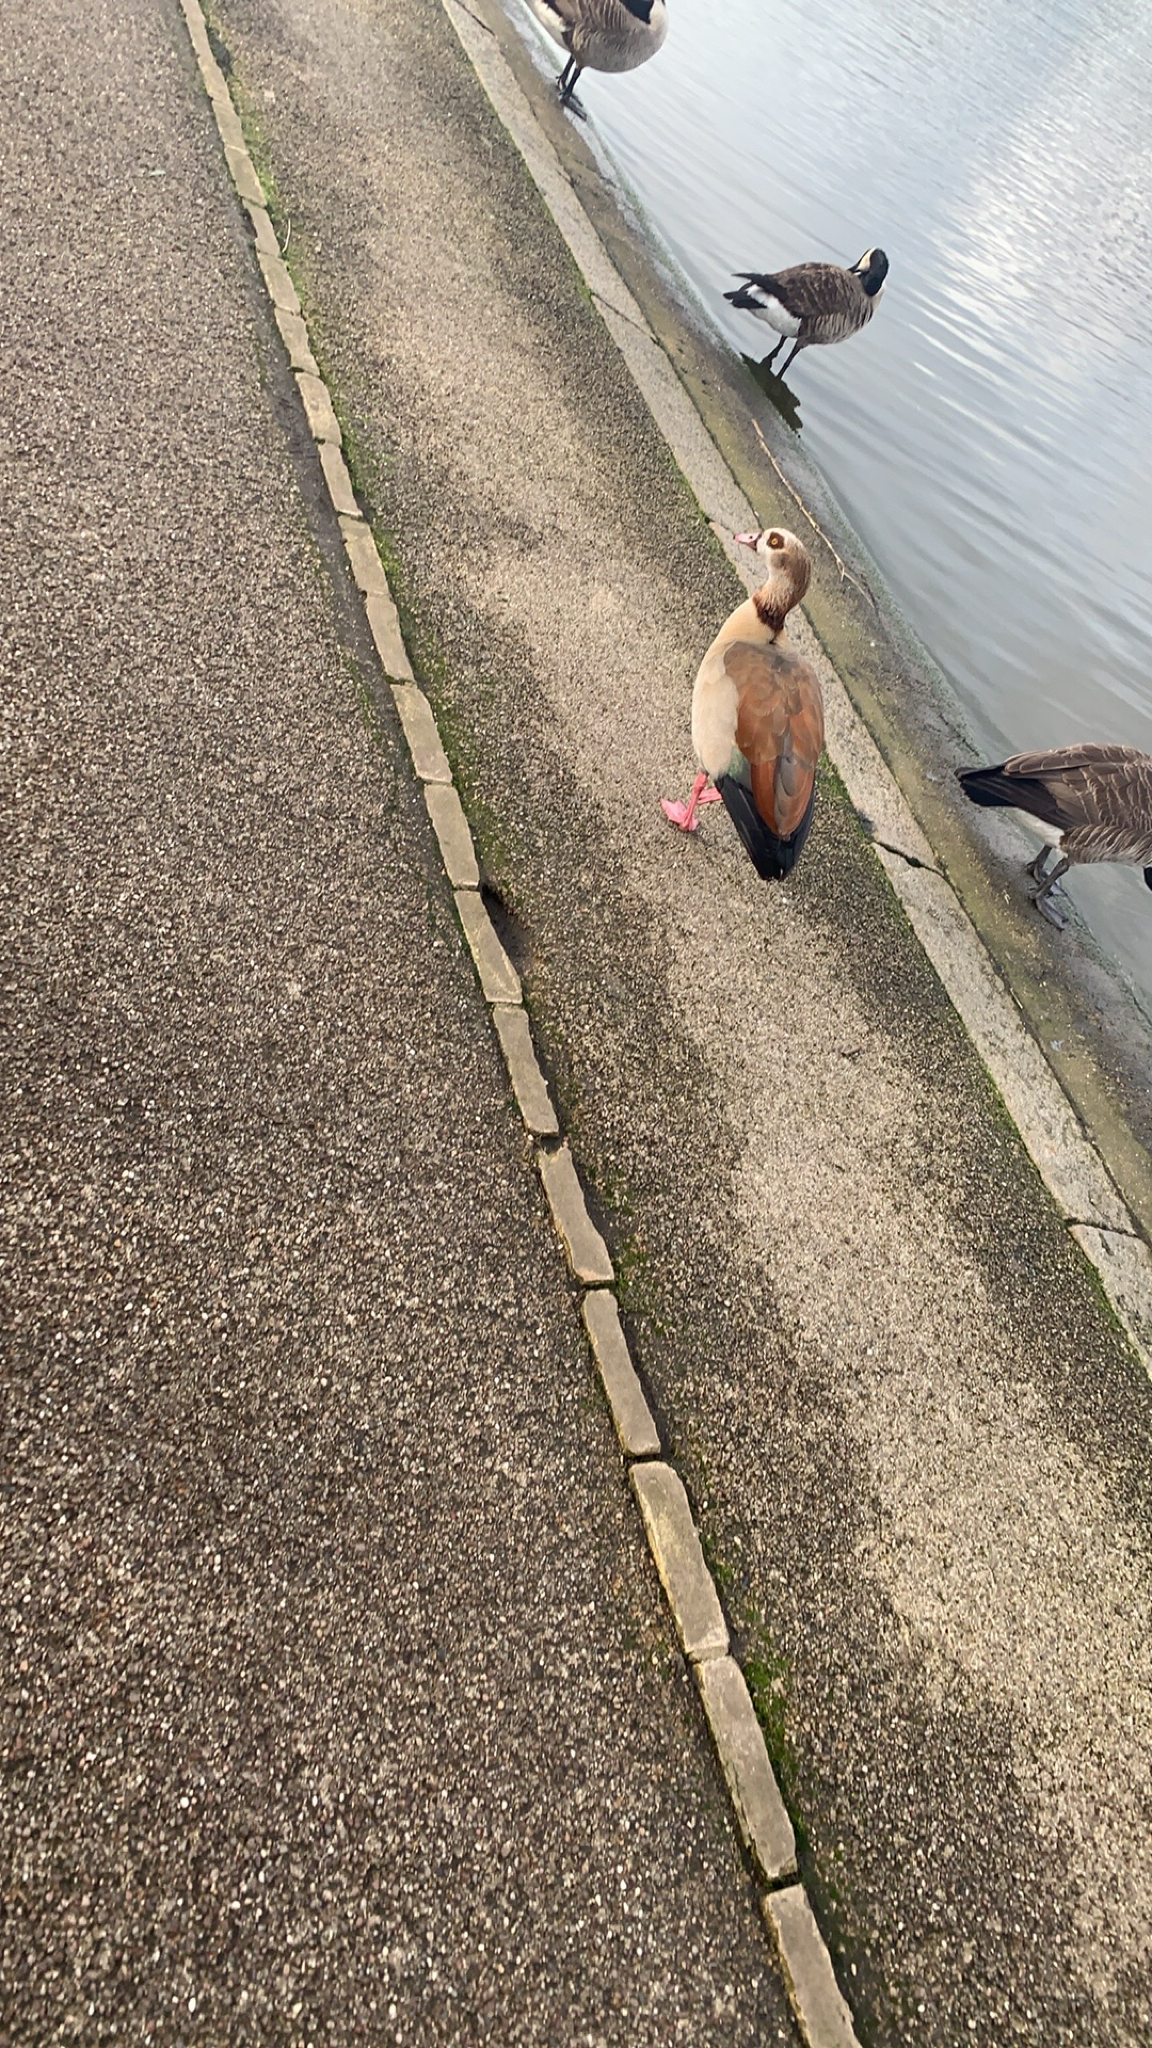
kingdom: Animalia
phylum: Chordata
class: Aves
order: Anseriformes
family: Anatidae
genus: Alopochen
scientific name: Alopochen aegyptiaca
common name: Egyptian goose
